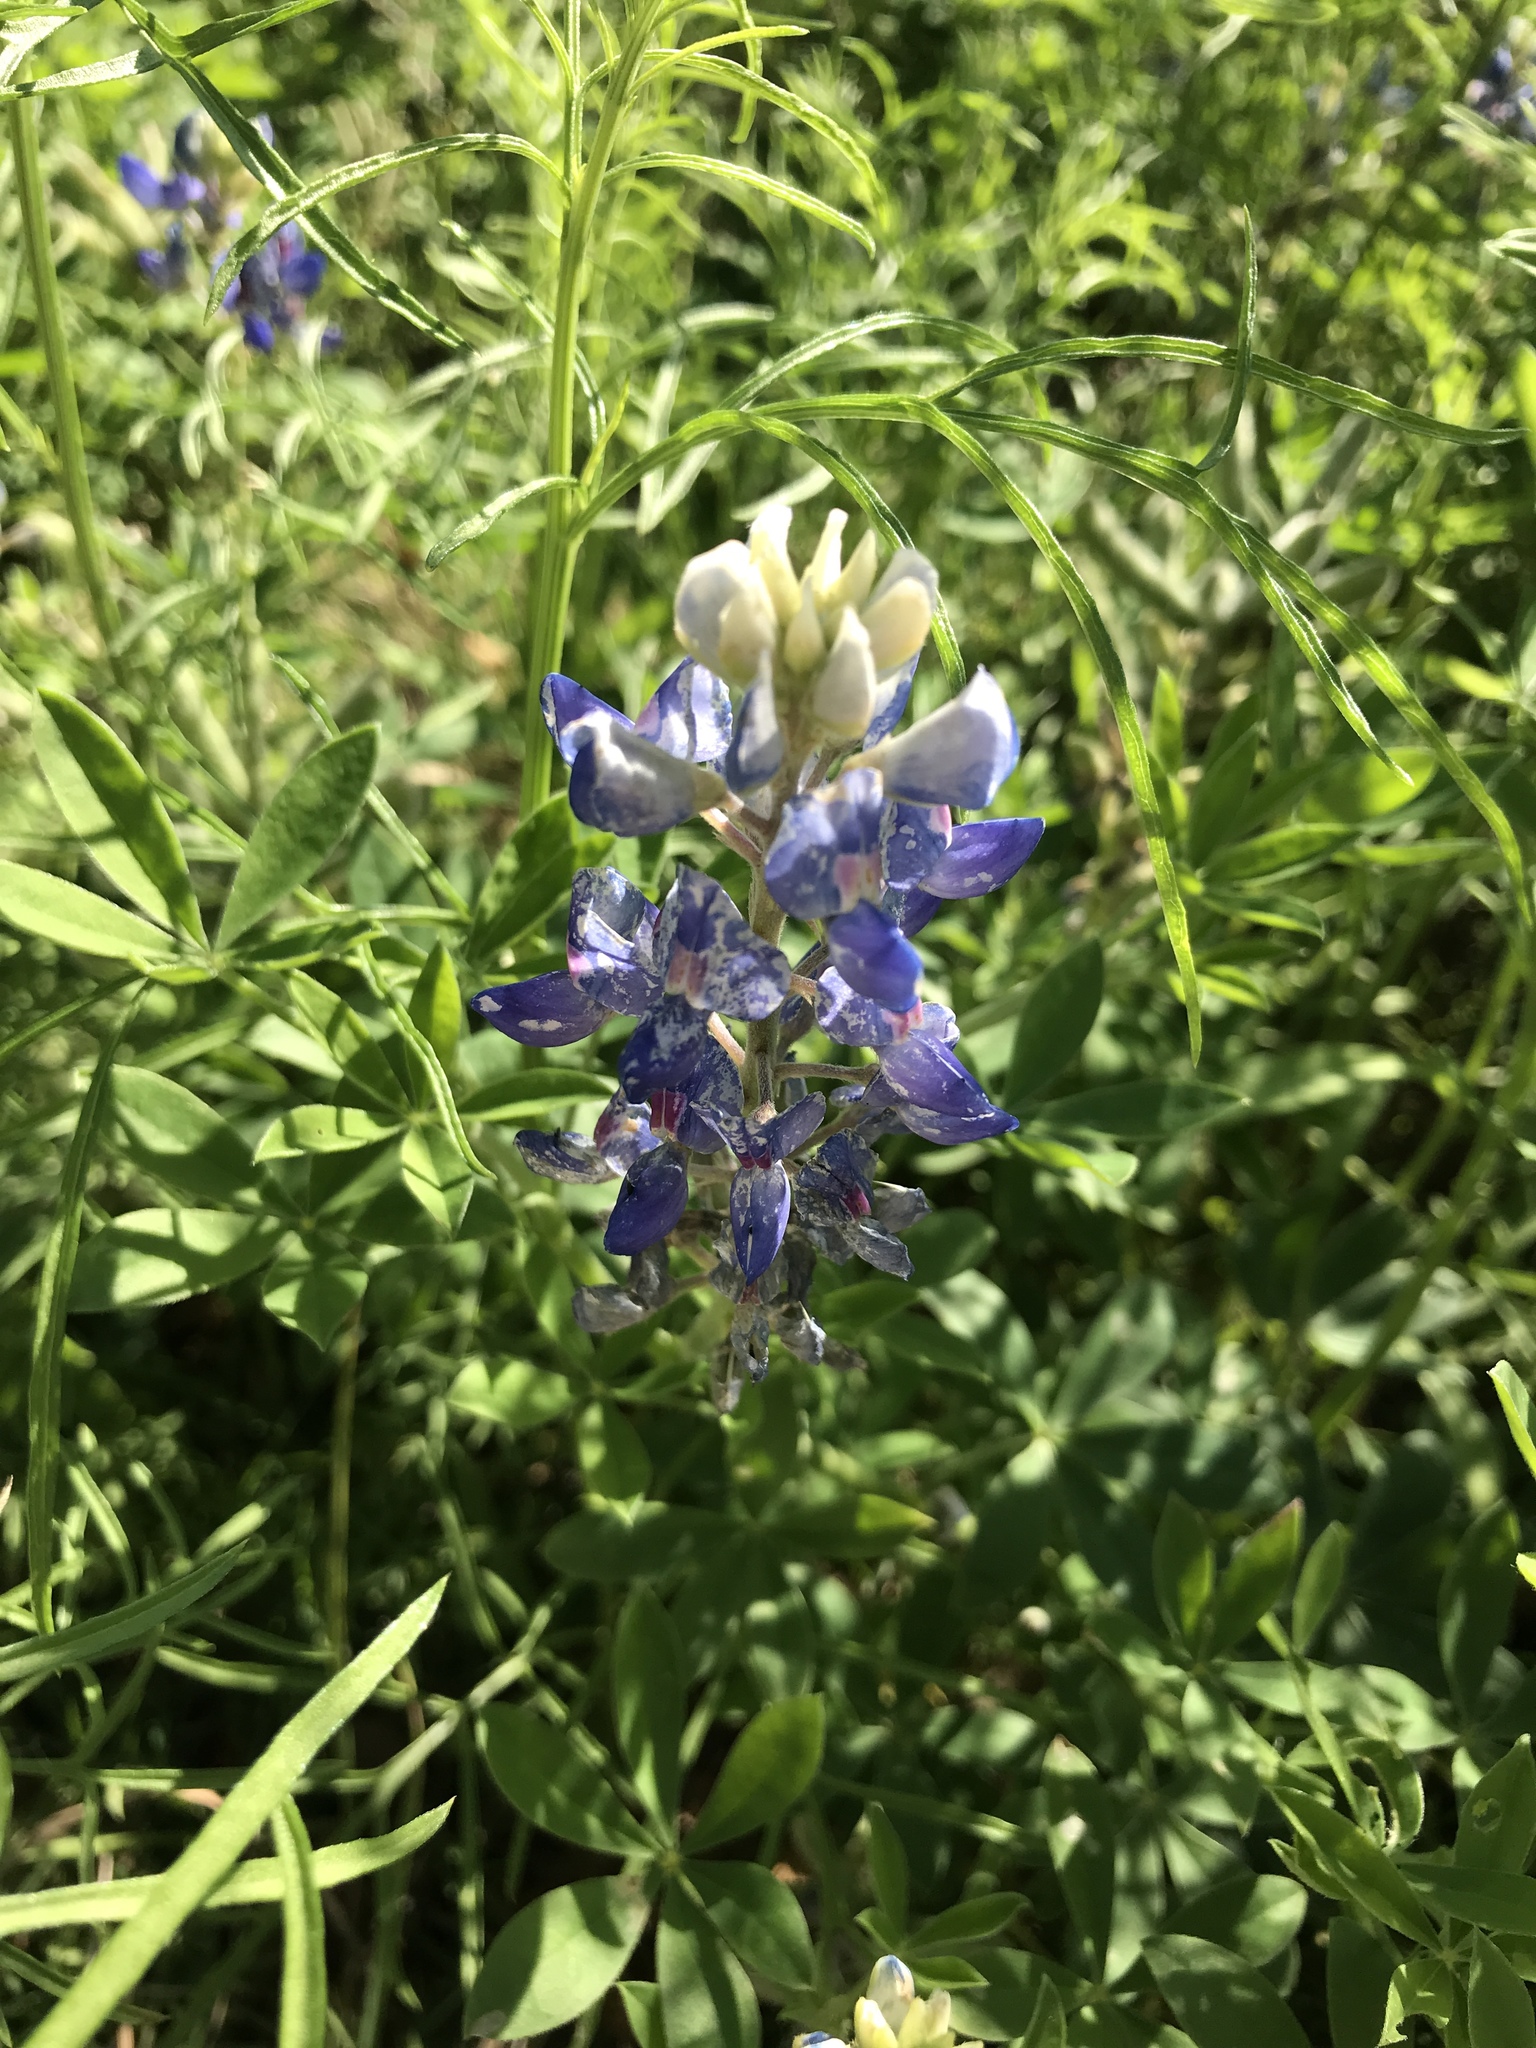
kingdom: Plantae
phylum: Tracheophyta
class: Magnoliopsida
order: Fabales
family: Fabaceae
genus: Lupinus
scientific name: Lupinus texensis
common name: Texas bluebonnet
